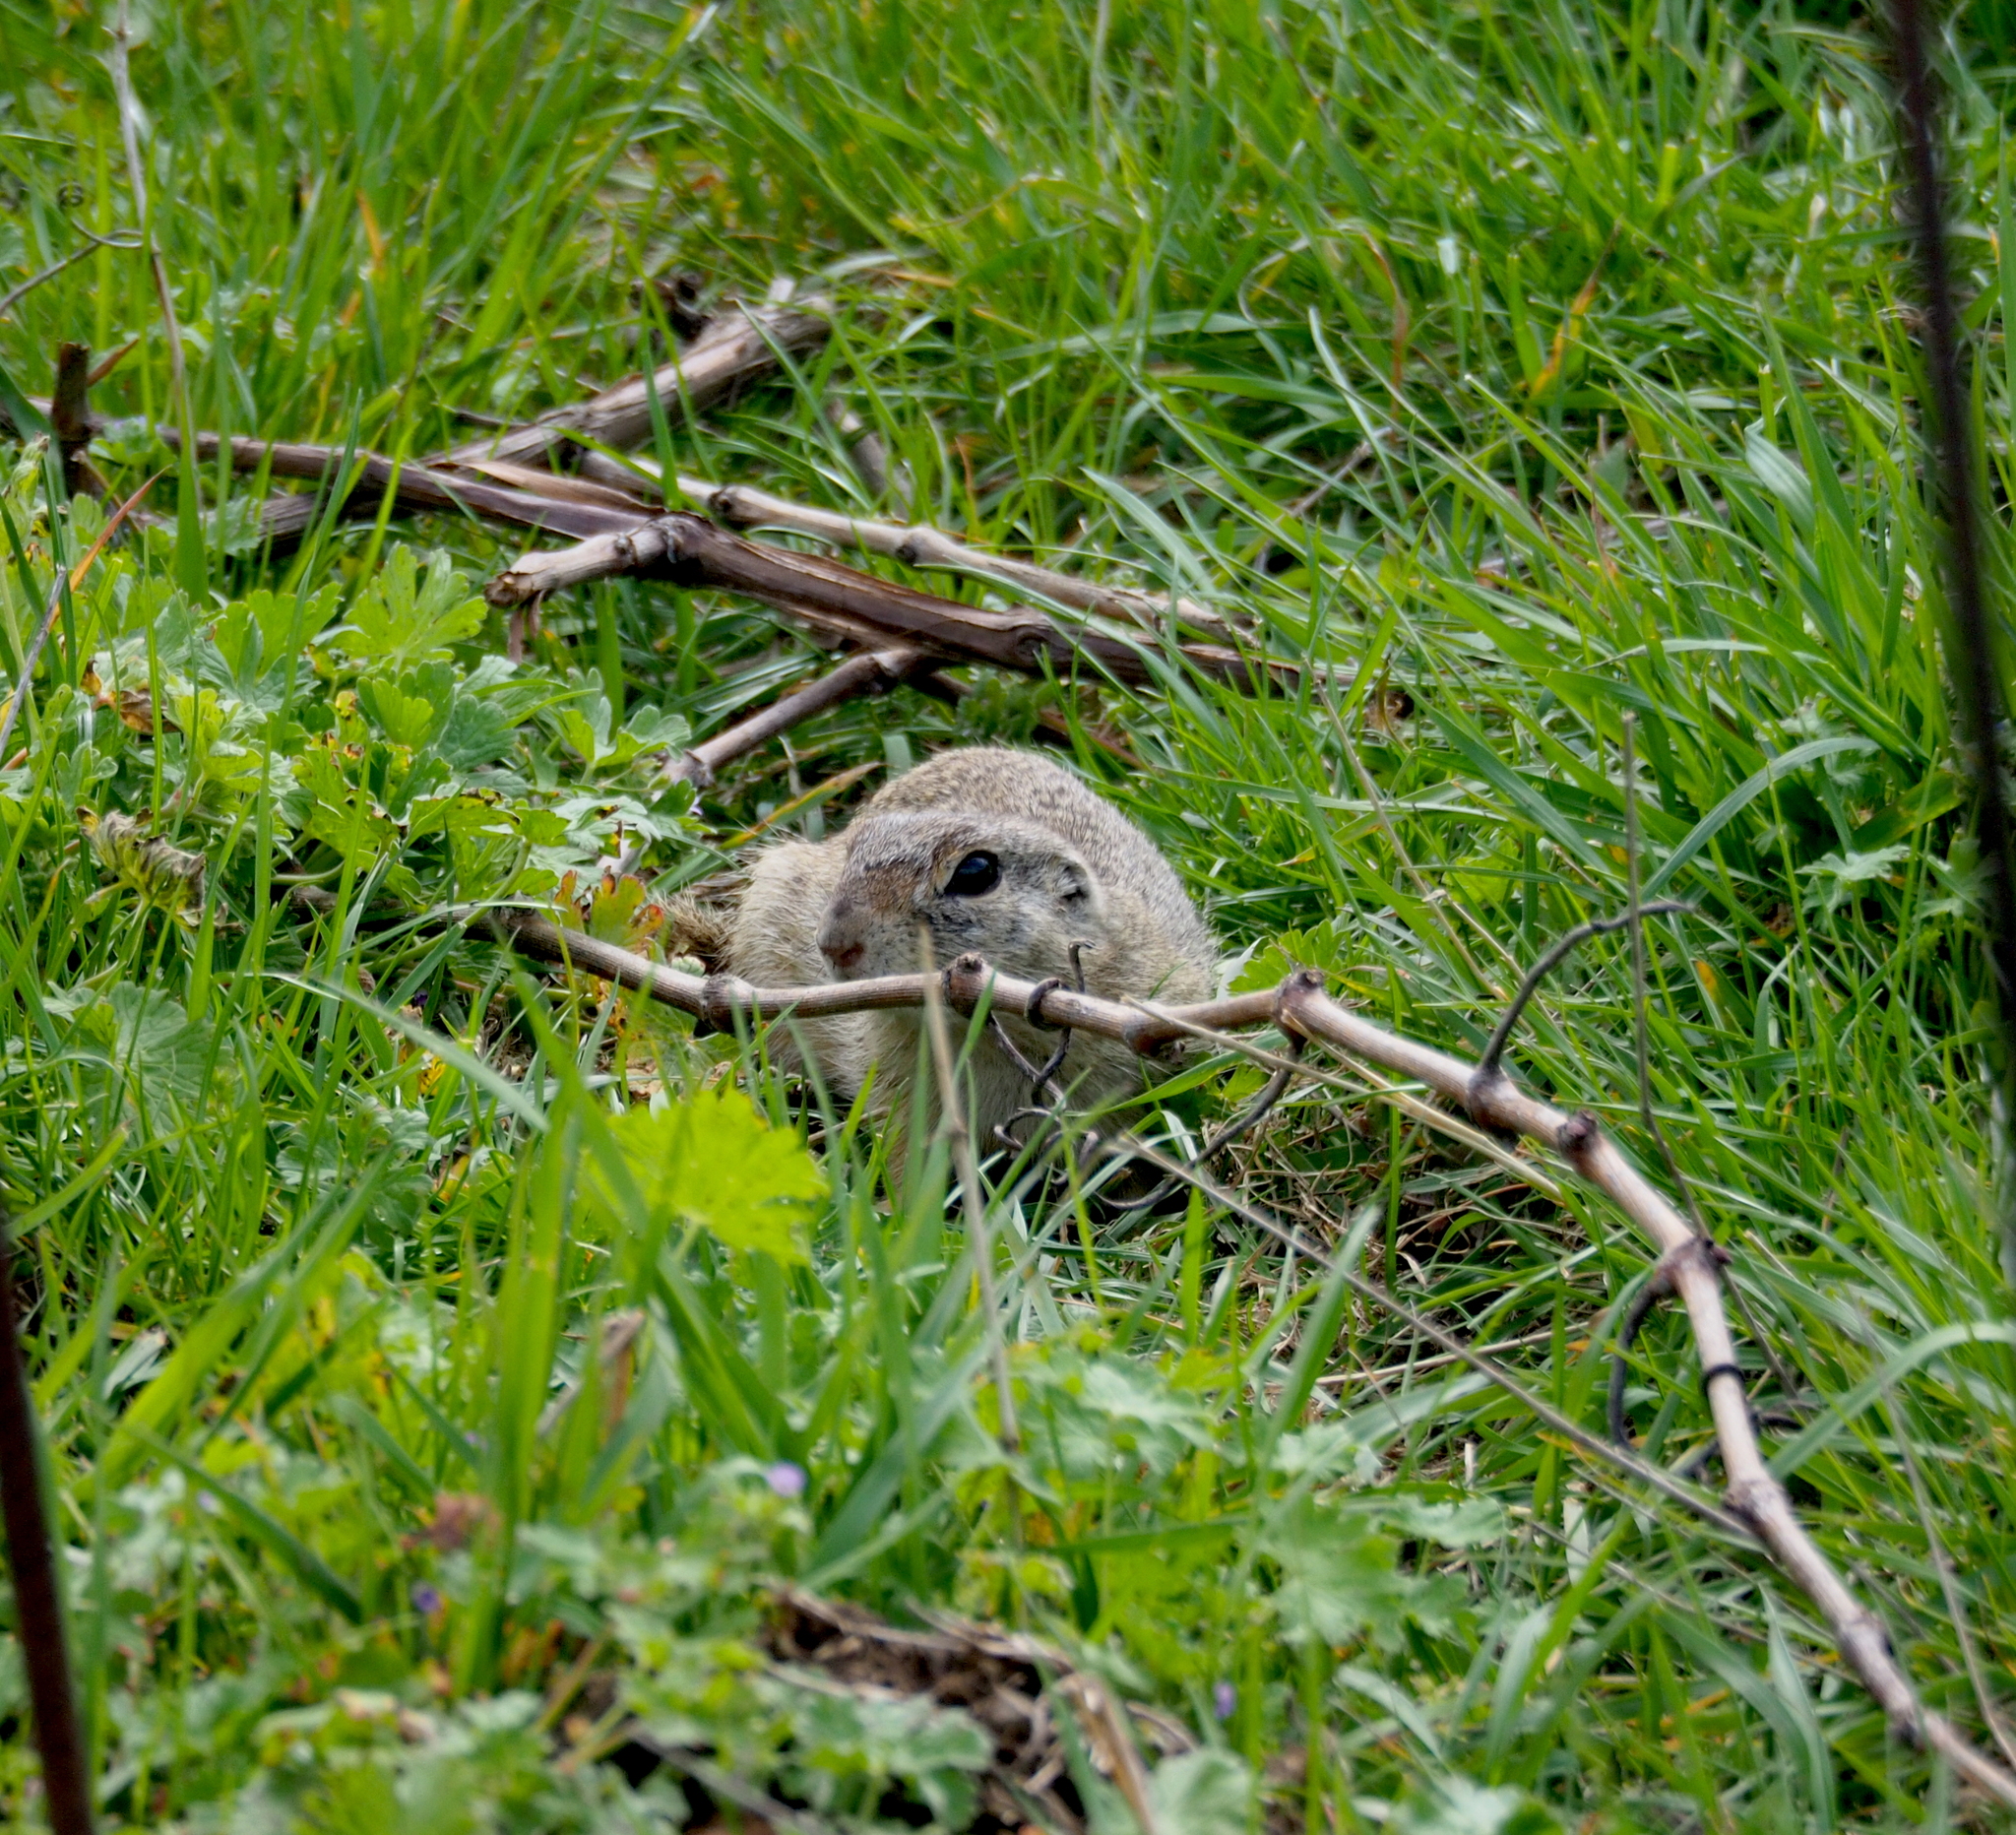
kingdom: Animalia
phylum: Chordata
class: Mammalia
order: Rodentia
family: Sciuridae
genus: Spermophilus
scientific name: Spermophilus citellus
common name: European ground squirrel
